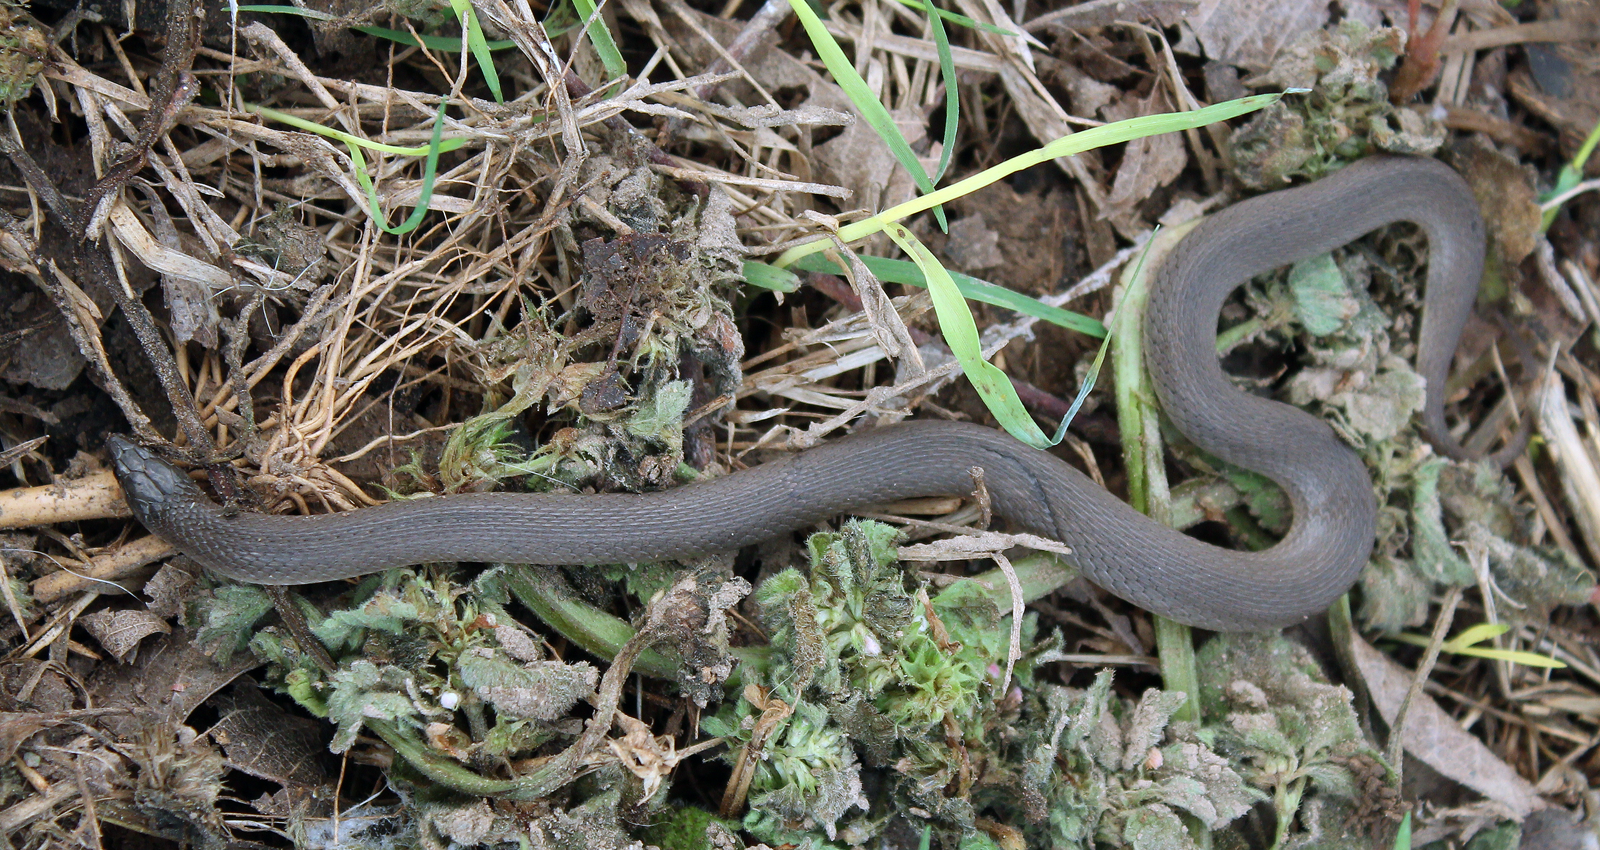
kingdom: Animalia
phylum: Chordata
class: Squamata
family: Colubridae
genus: Haldea
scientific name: Haldea striatula
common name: Rough earth snake
